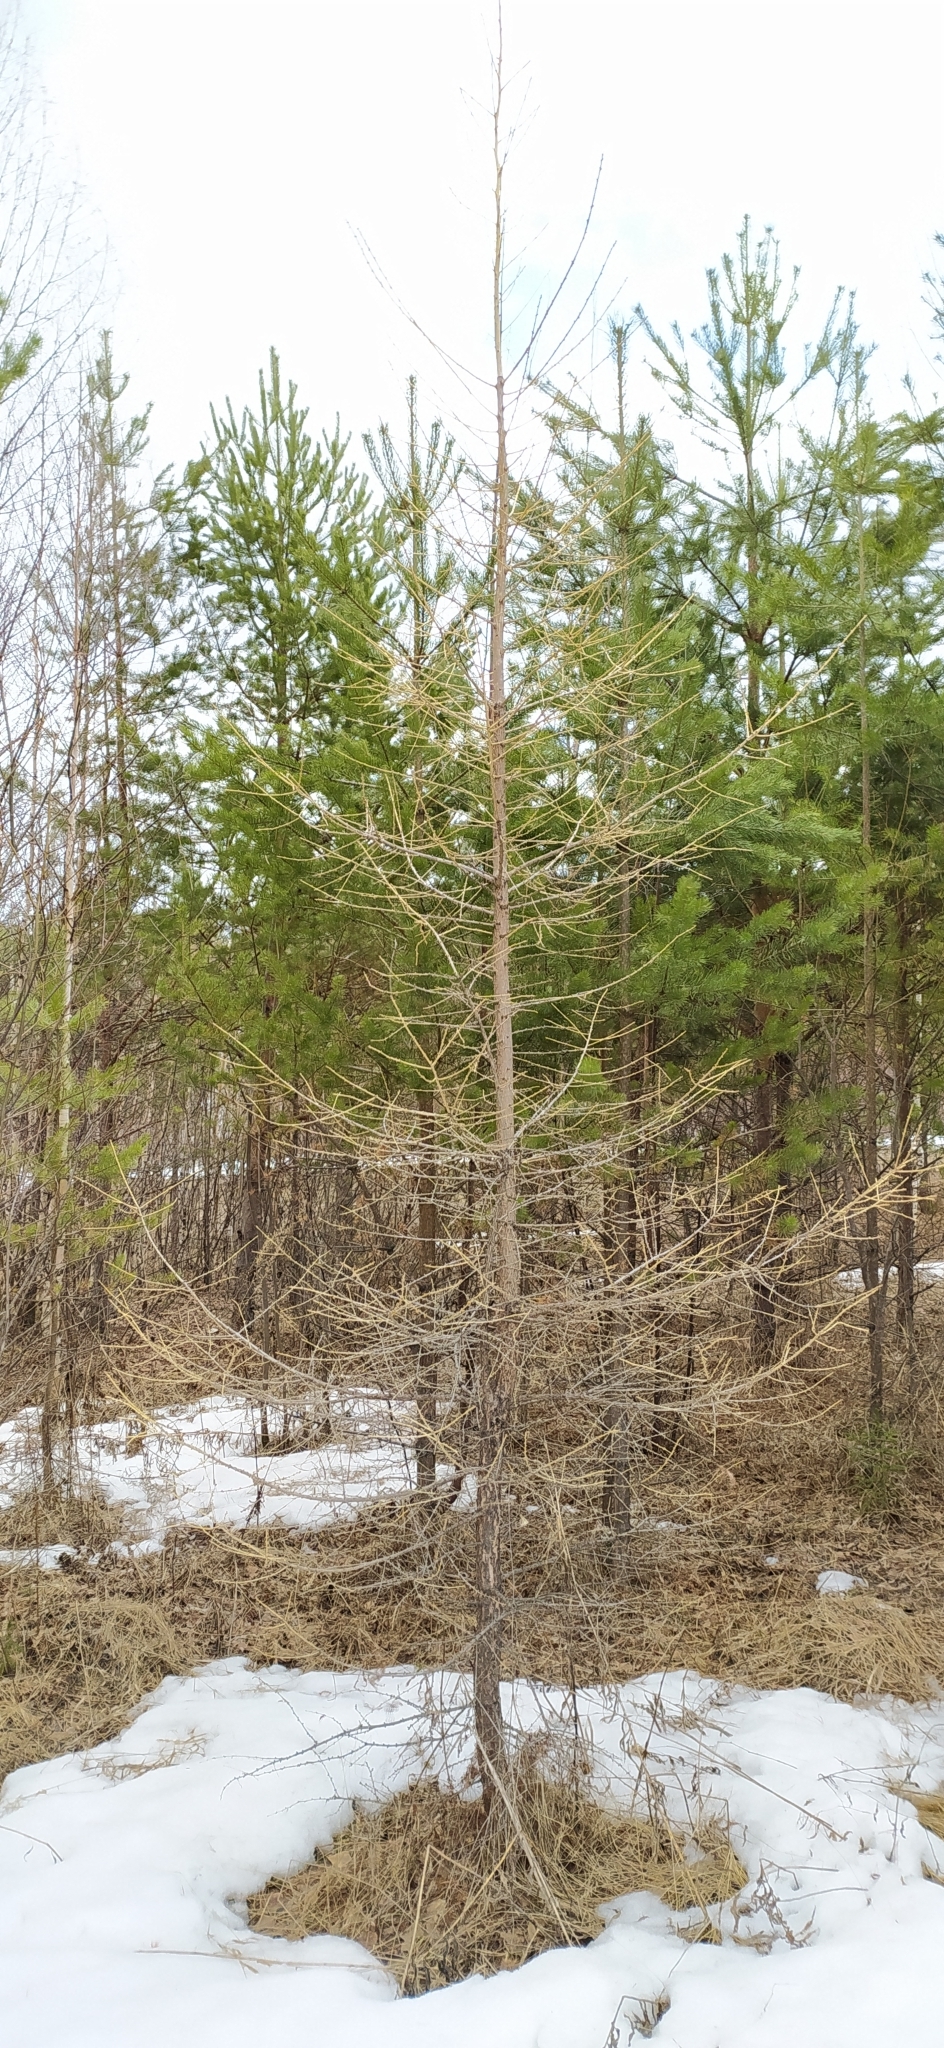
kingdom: Plantae
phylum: Tracheophyta
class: Pinopsida
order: Pinales
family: Pinaceae
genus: Larix
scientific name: Larix sibirica
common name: Siberian larch
